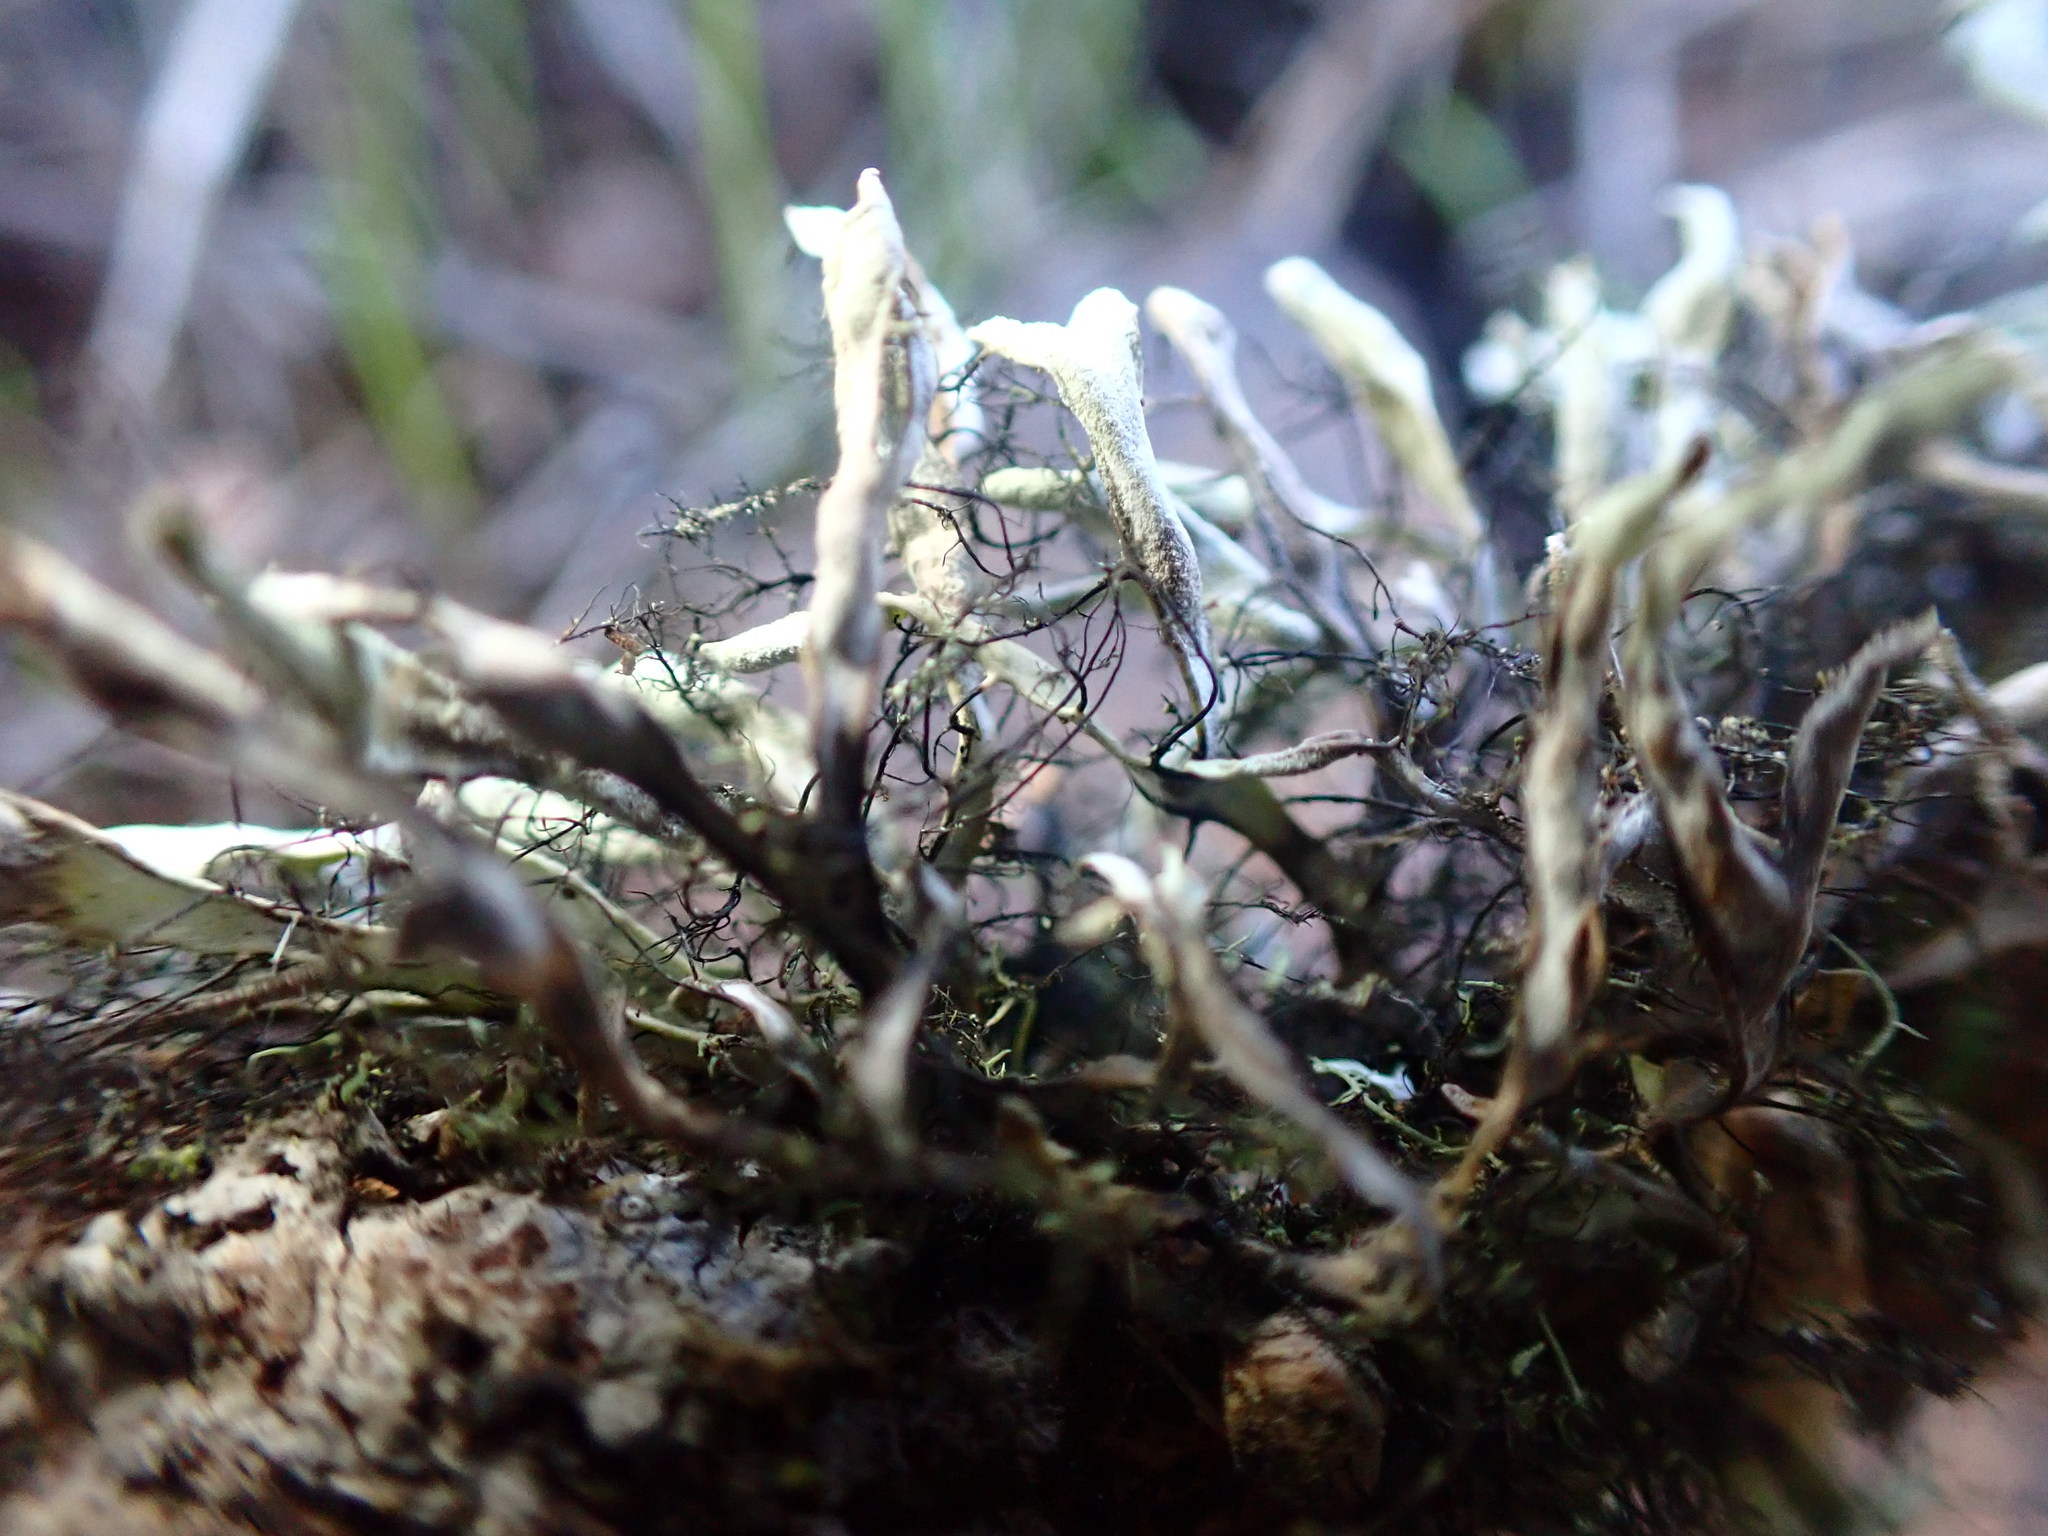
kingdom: Fungi
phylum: Ascomycota
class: Lecanoromycetes
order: Caliciales
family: Physciaceae
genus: Leucodermia
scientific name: Leucodermia leucomelos
